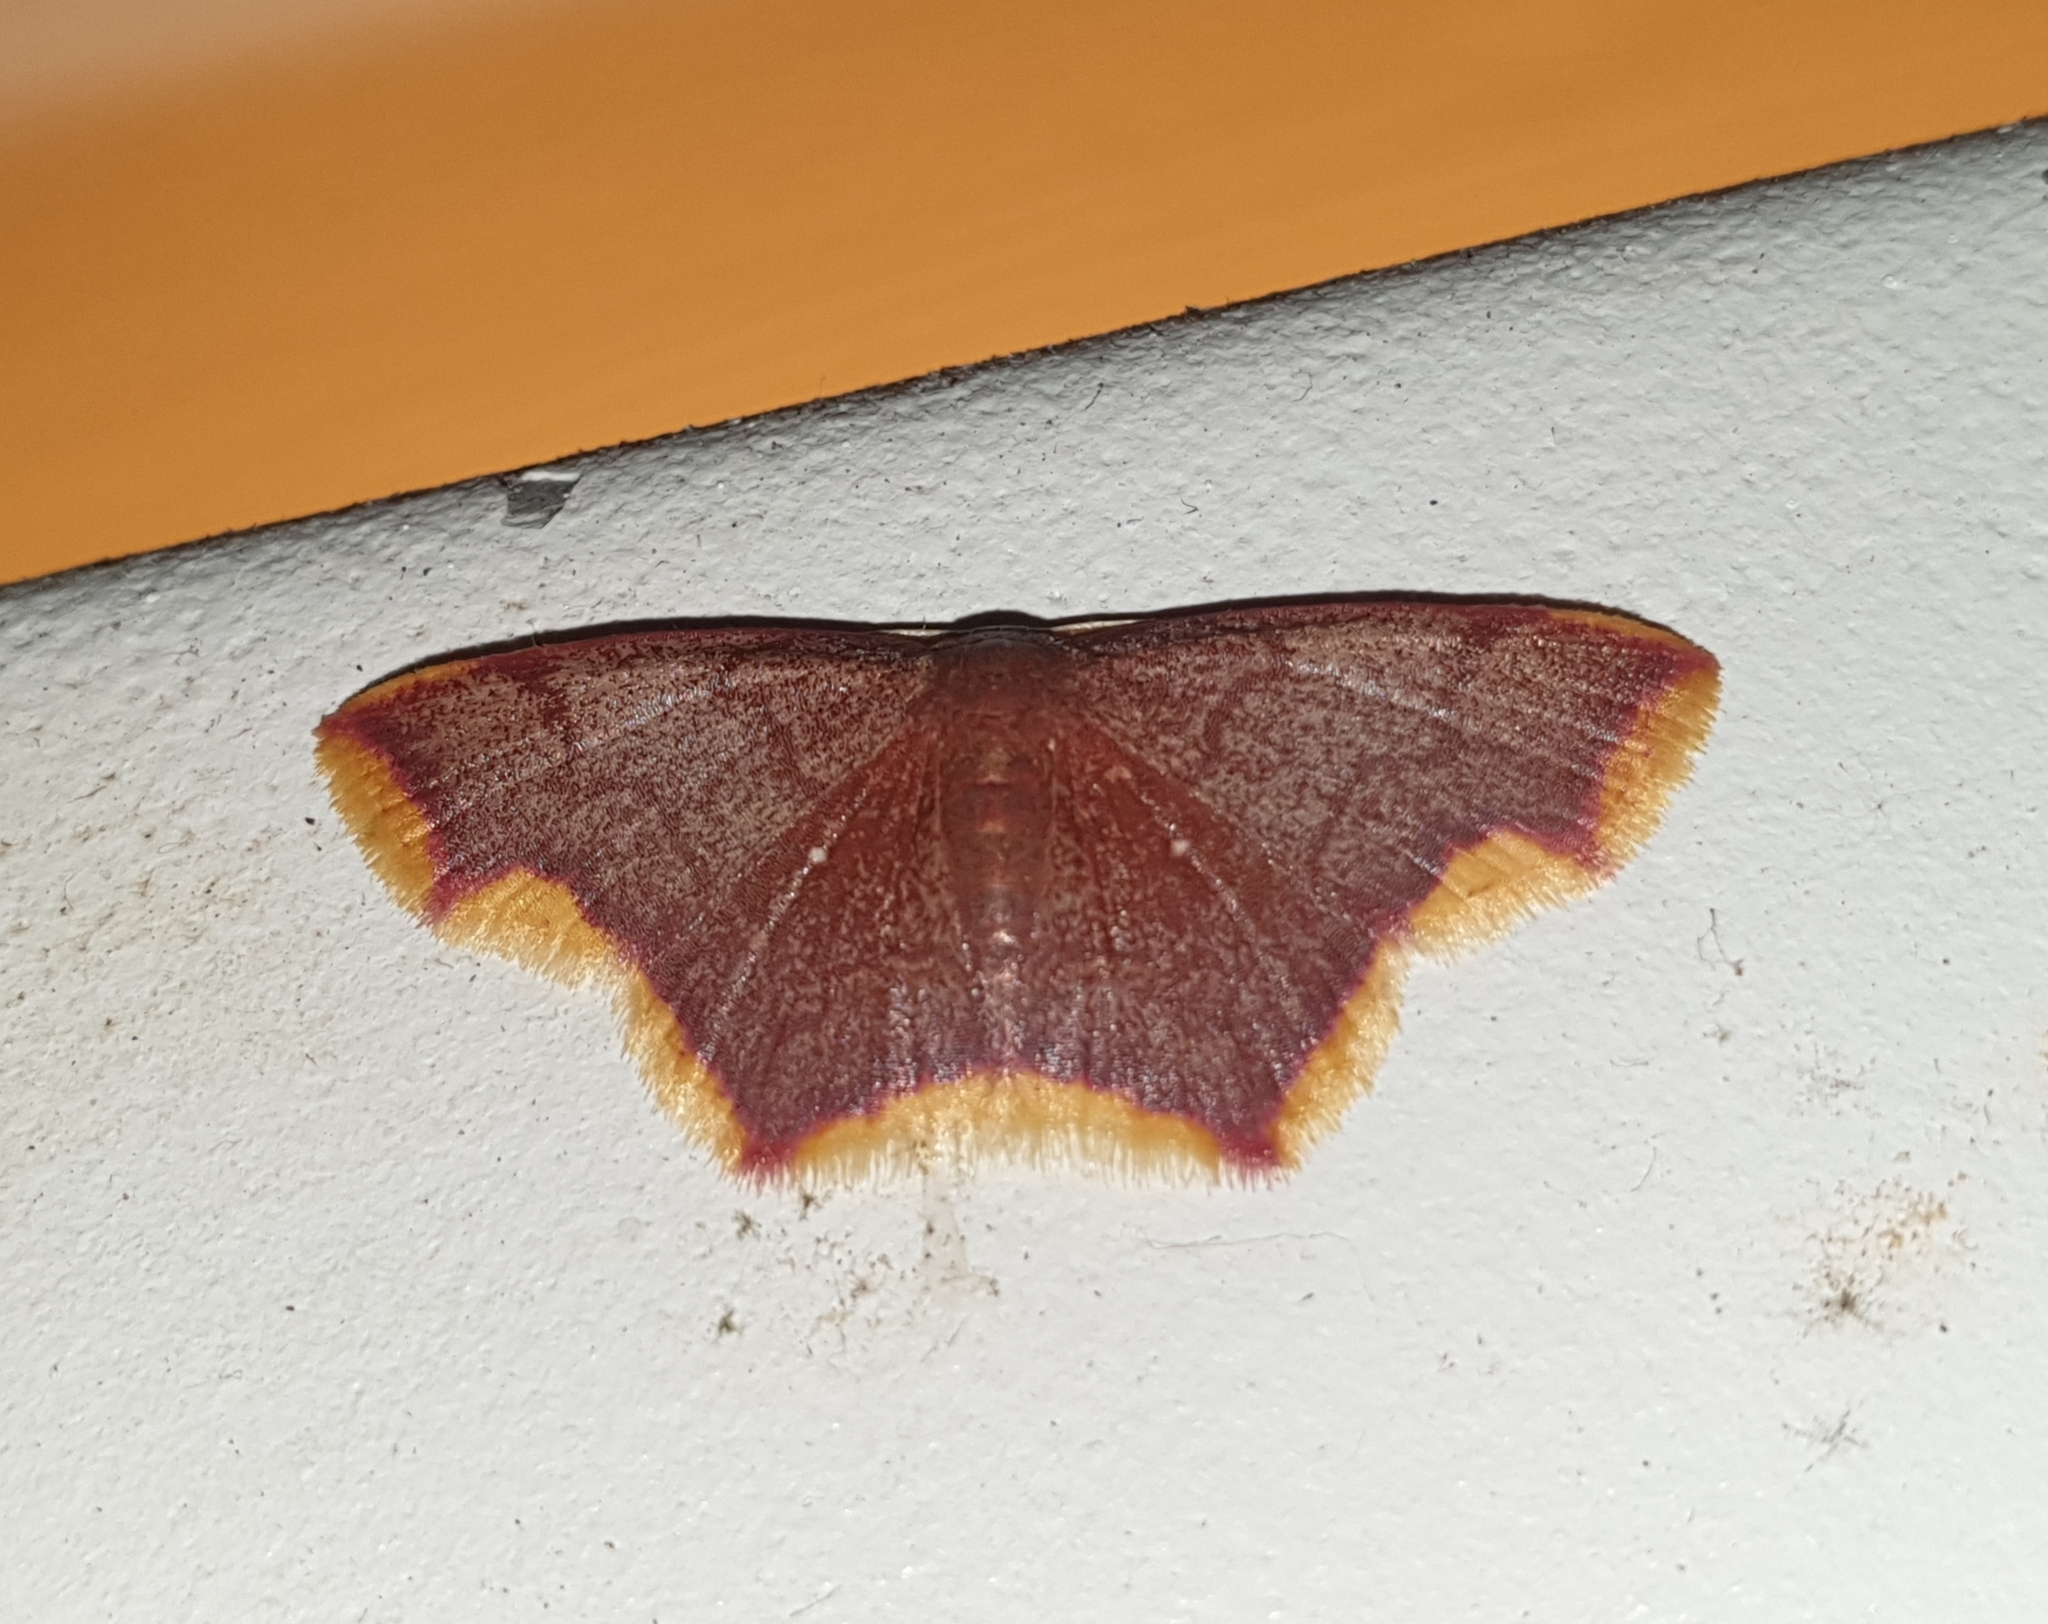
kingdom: Animalia
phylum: Arthropoda
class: Insecta
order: Lepidoptera
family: Geometridae
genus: Chrysocraspeda
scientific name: Chrysocraspeda faganaria
